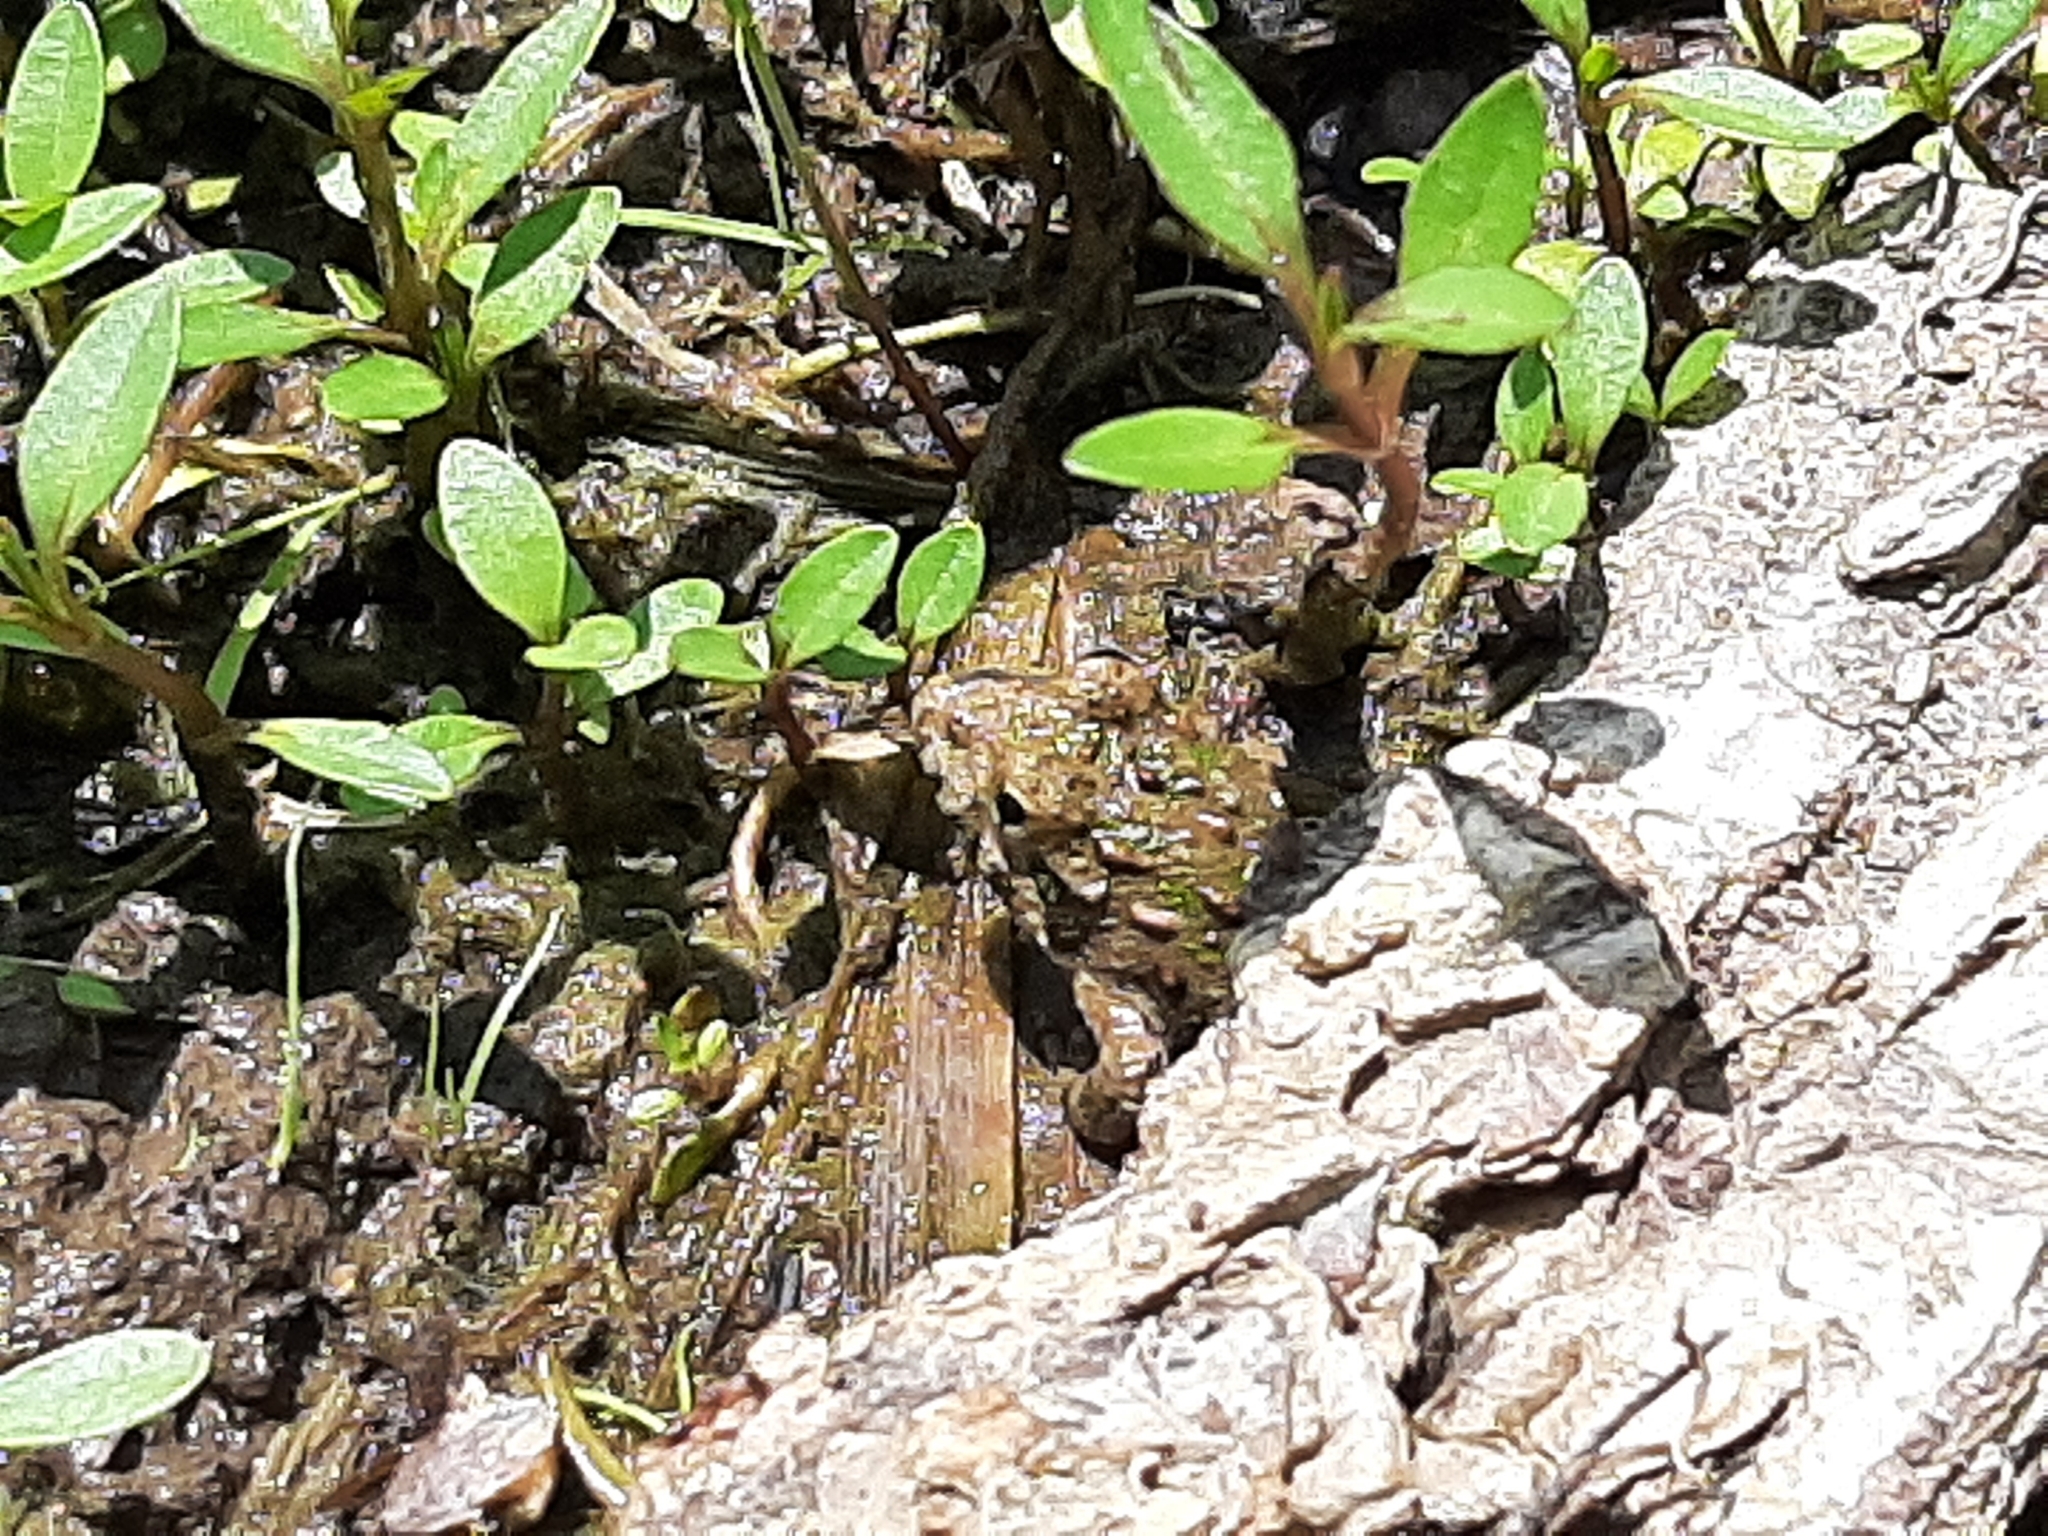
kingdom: Animalia
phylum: Chordata
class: Amphibia
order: Anura
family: Hylidae
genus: Acris
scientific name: Acris blanchardi
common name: Blanchard's cricket frog
